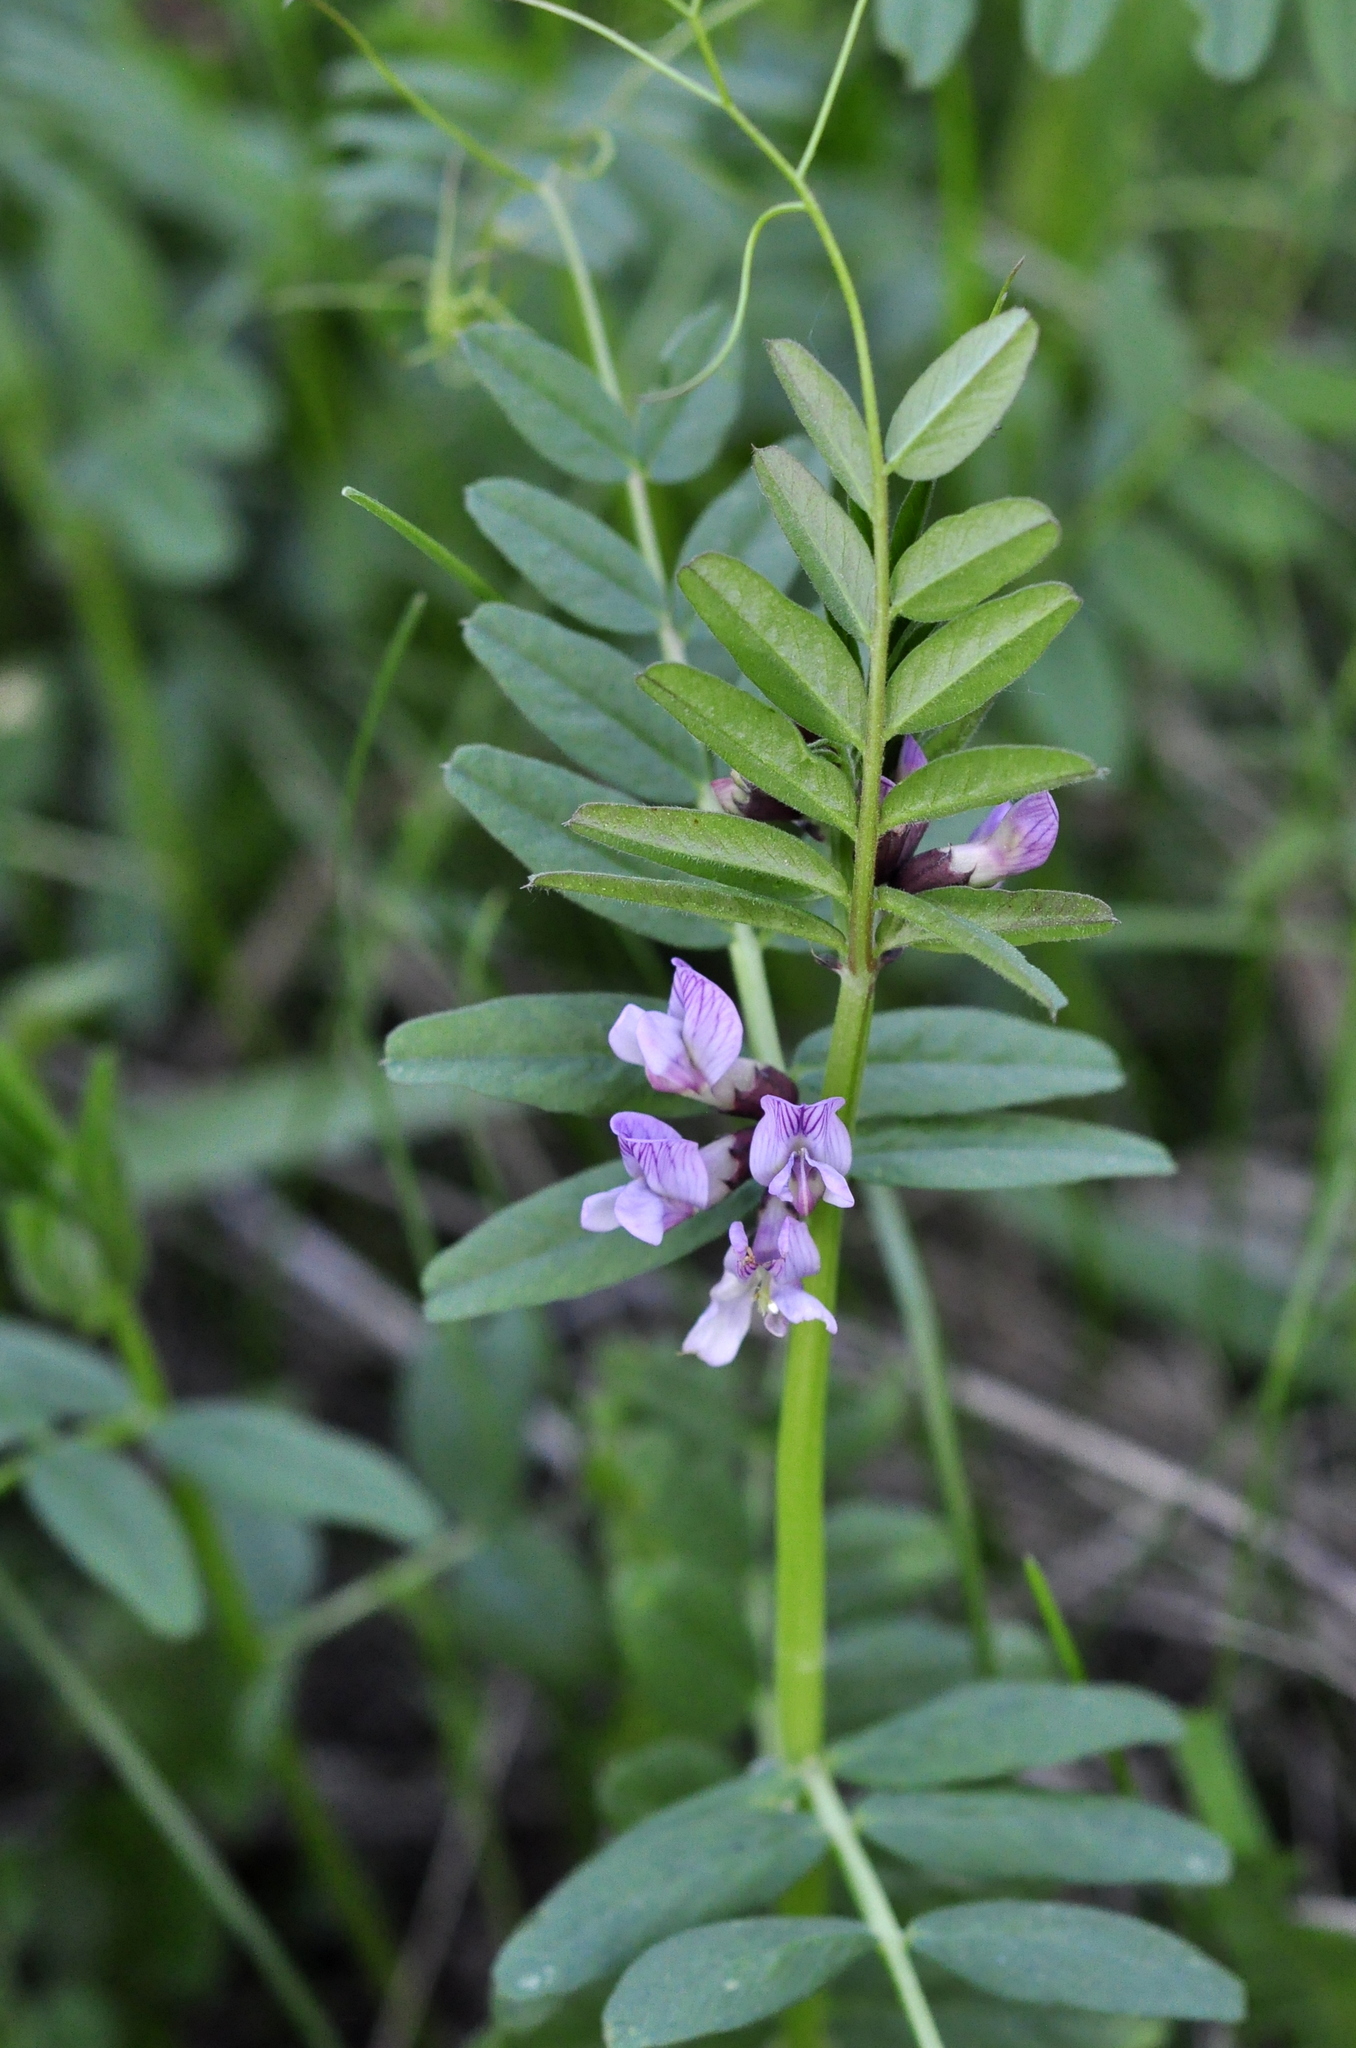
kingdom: Plantae
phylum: Tracheophyta
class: Magnoliopsida
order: Fabales
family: Fabaceae
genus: Vicia
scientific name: Vicia sepium
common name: Bush vetch
